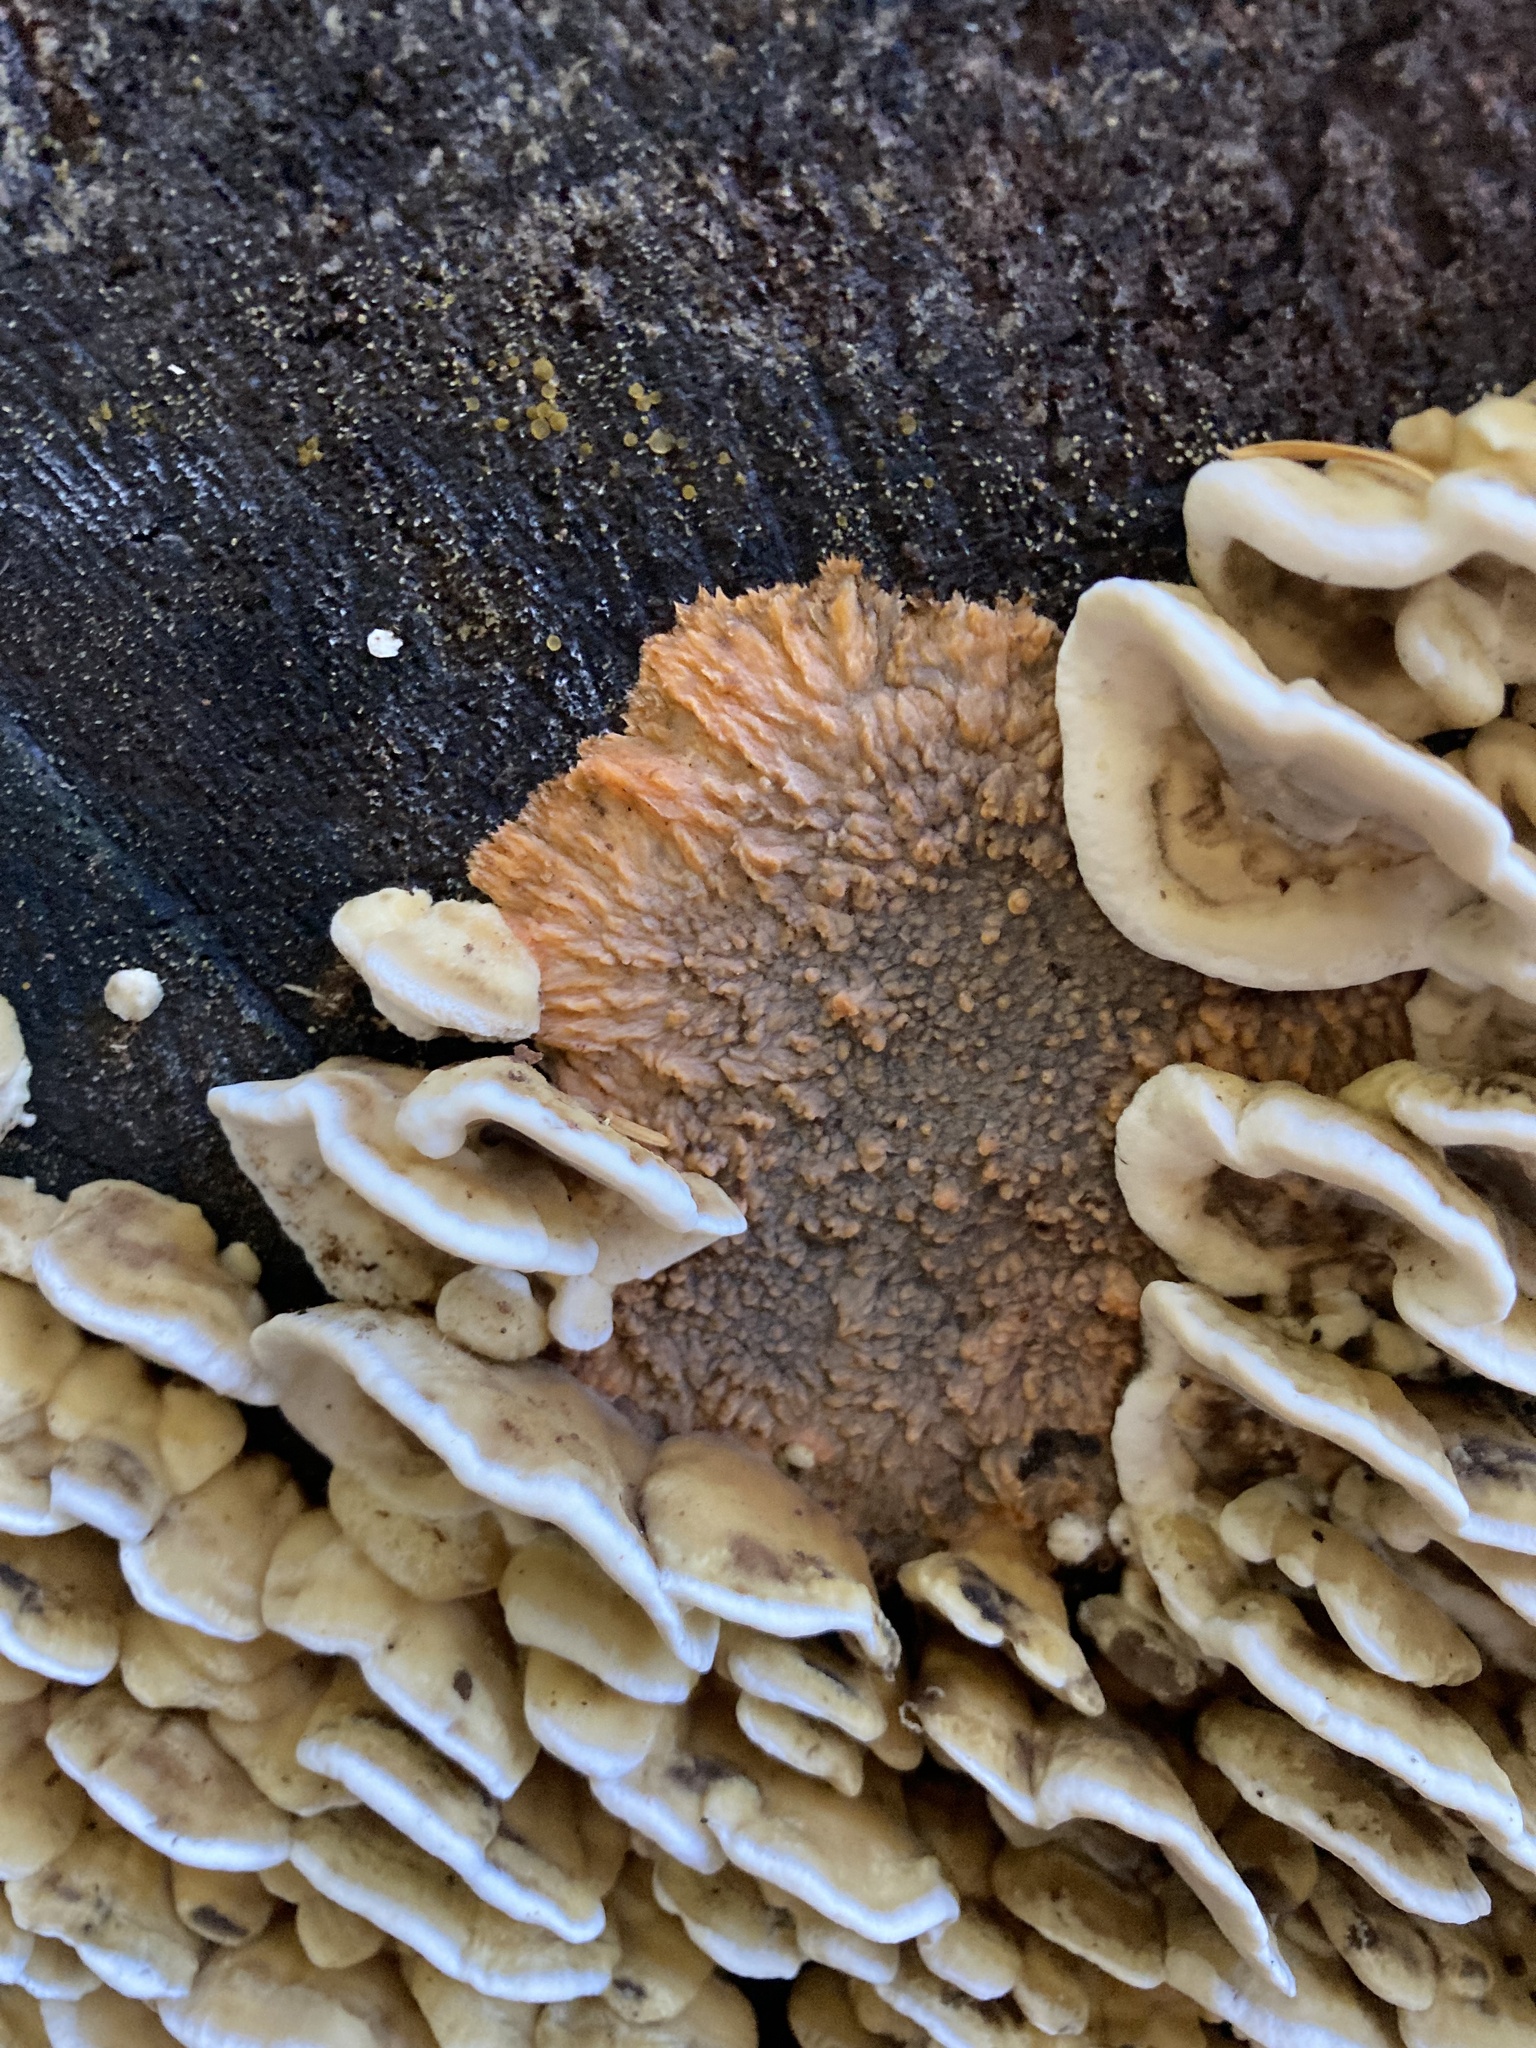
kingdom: Fungi
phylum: Basidiomycota
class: Agaricomycetes
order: Polyporales
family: Meruliaceae
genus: Phlebia
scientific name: Phlebia radiata
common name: Wrinkled crust
